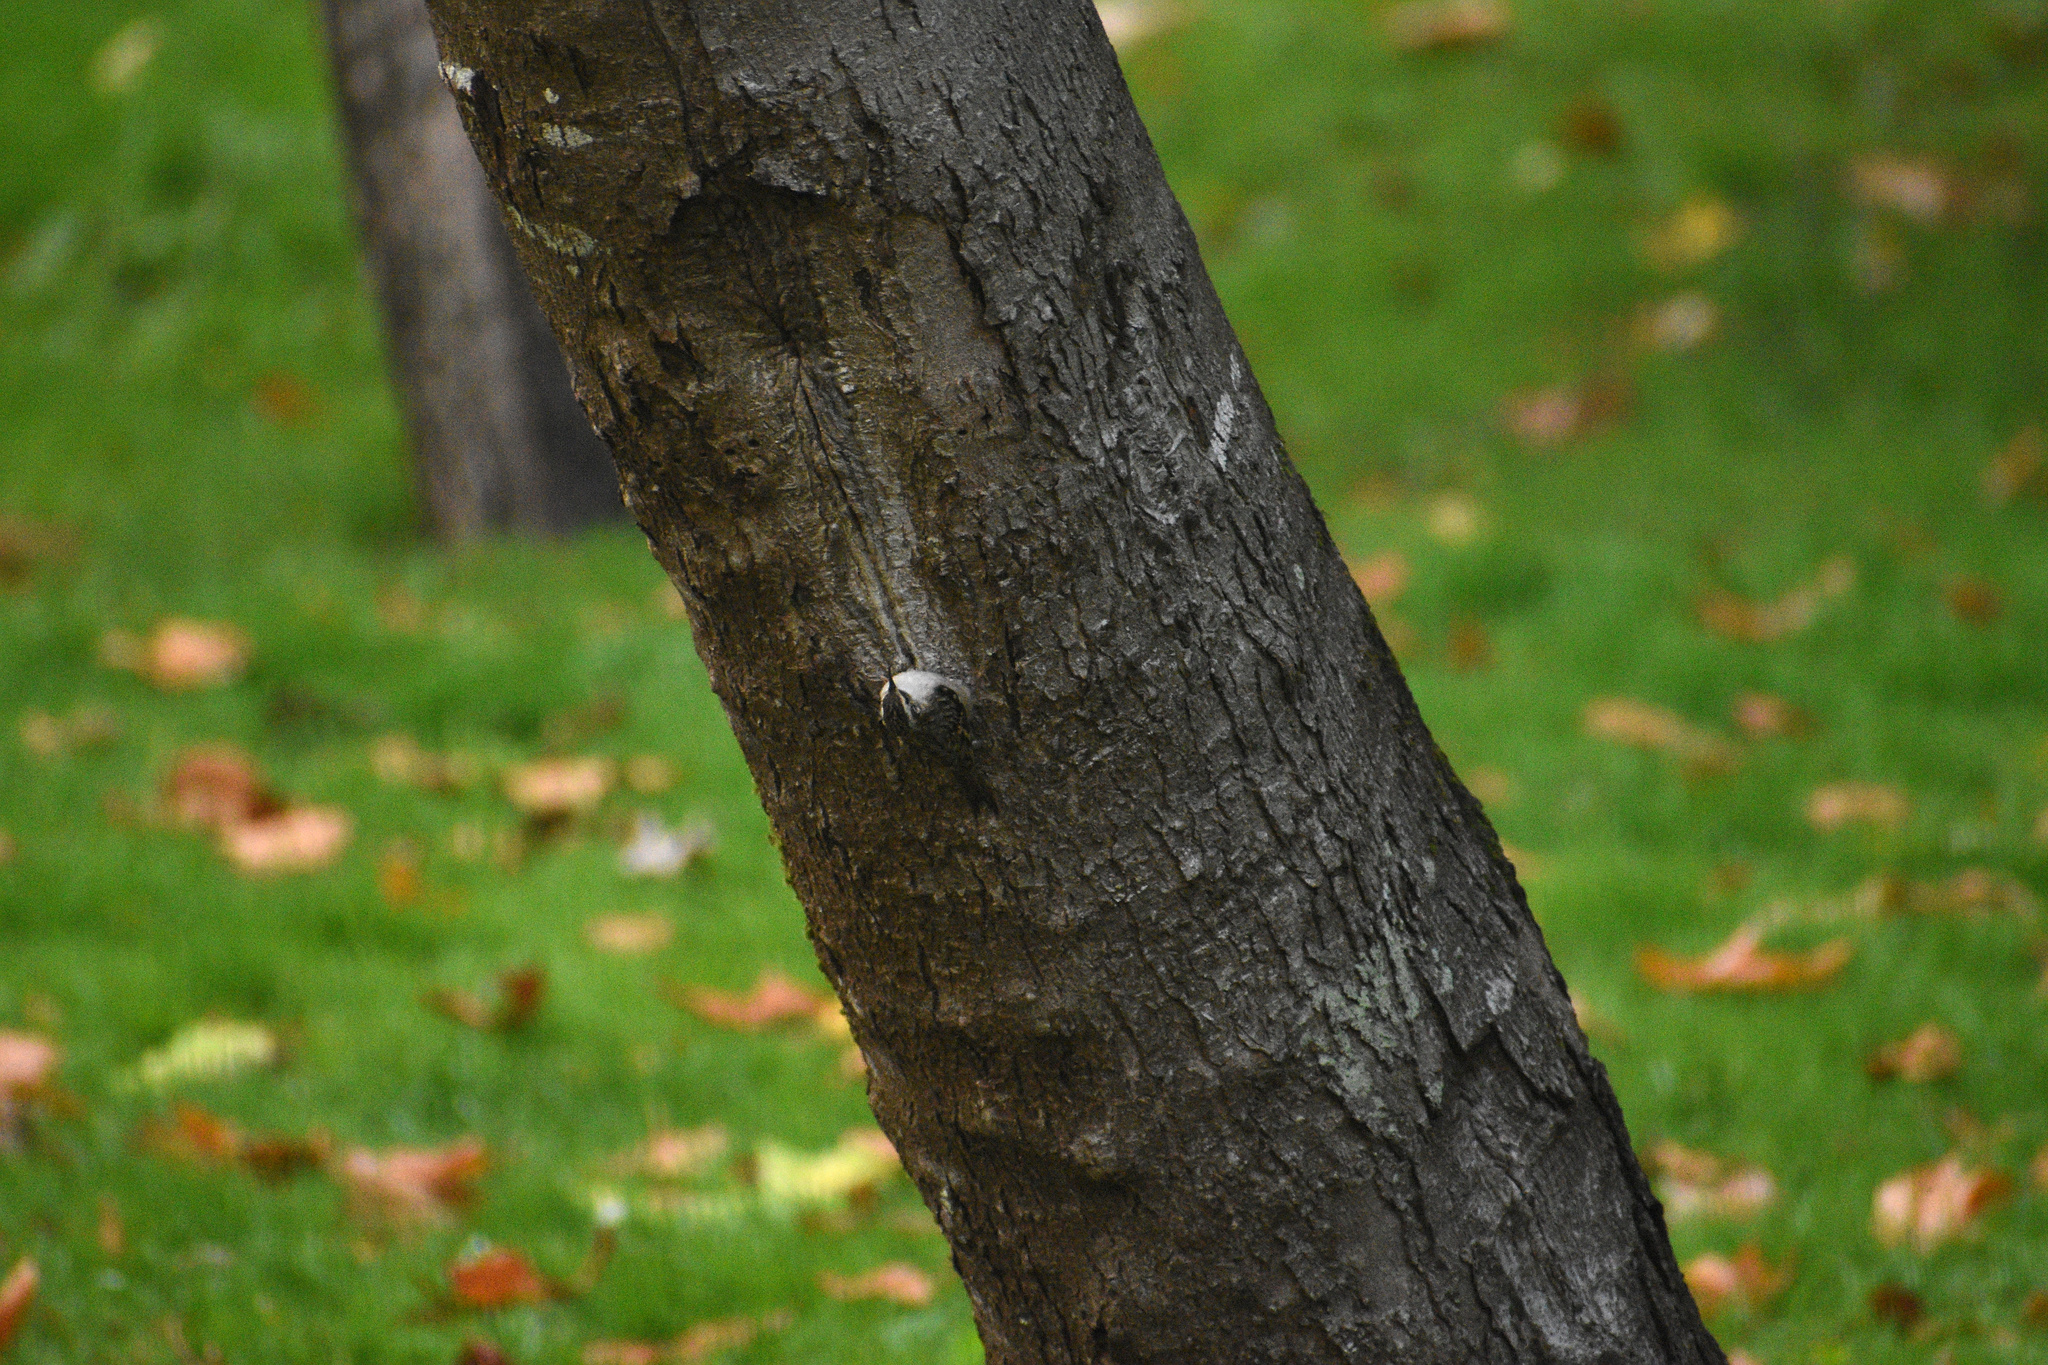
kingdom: Animalia
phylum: Chordata
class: Aves
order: Passeriformes
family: Certhiidae
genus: Certhia
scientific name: Certhia americana
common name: Brown creeper
